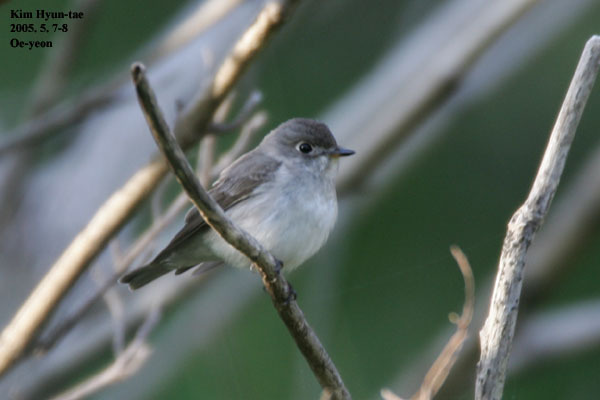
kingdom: Animalia
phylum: Chordata
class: Aves
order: Passeriformes
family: Muscicapidae
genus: Muscicapa
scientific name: Muscicapa latirostris
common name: Asian brown flycatcher
